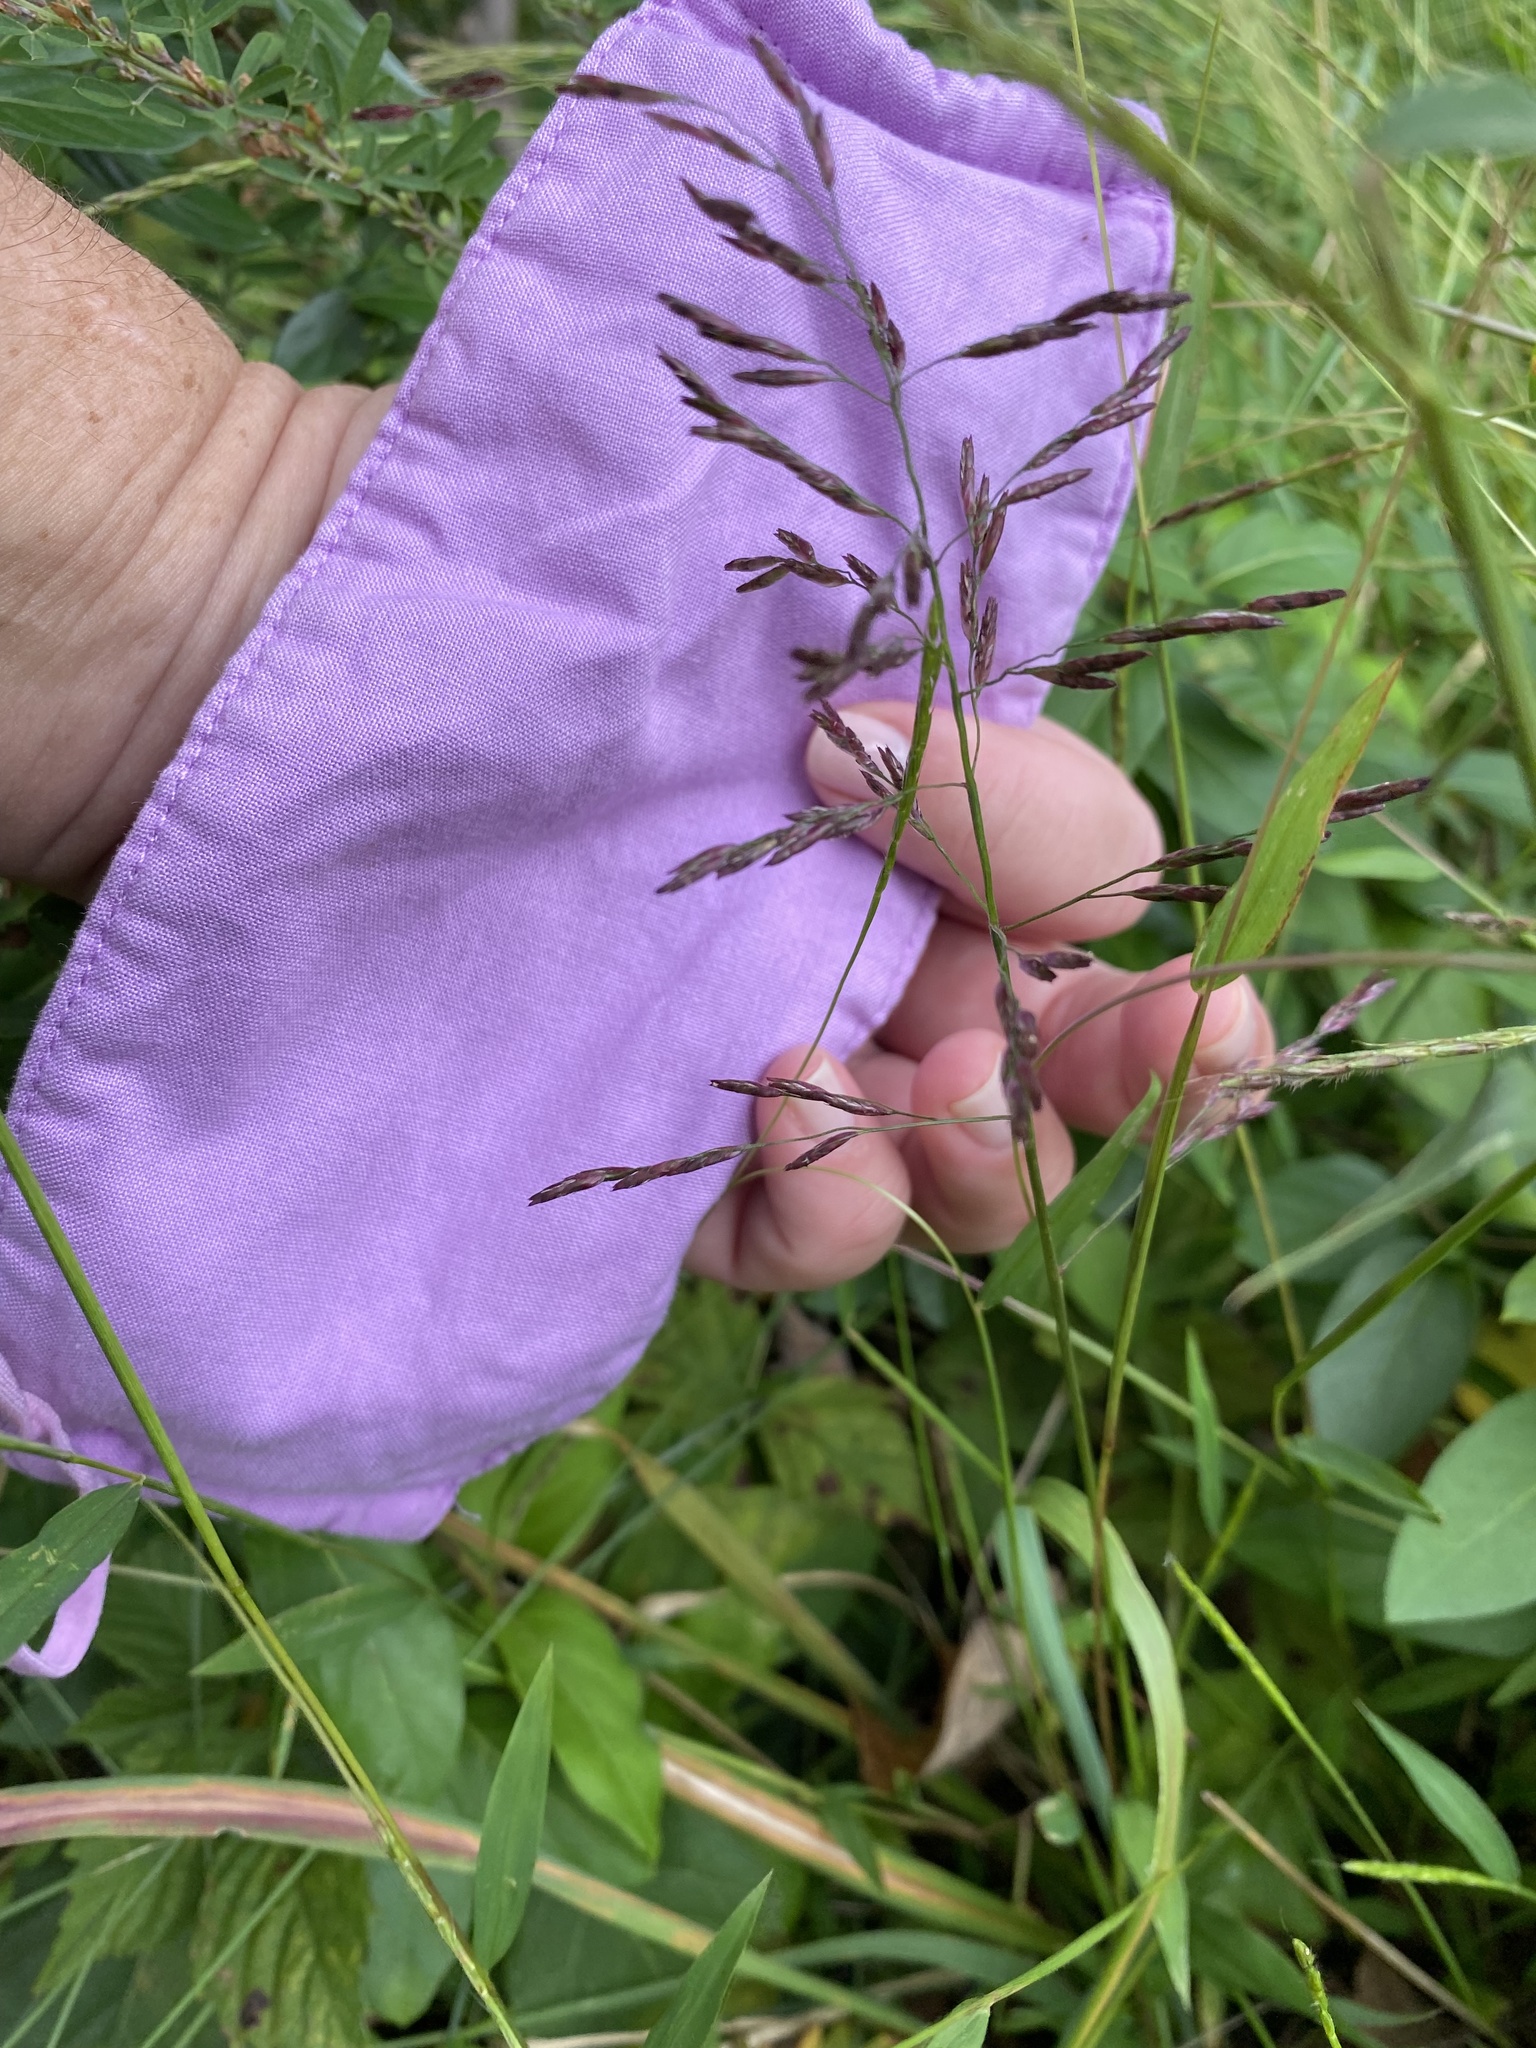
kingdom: Plantae
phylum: Tracheophyta
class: Liliopsida
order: Poales
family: Poaceae
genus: Tridens
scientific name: Tridens flavus
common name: Purpletop
